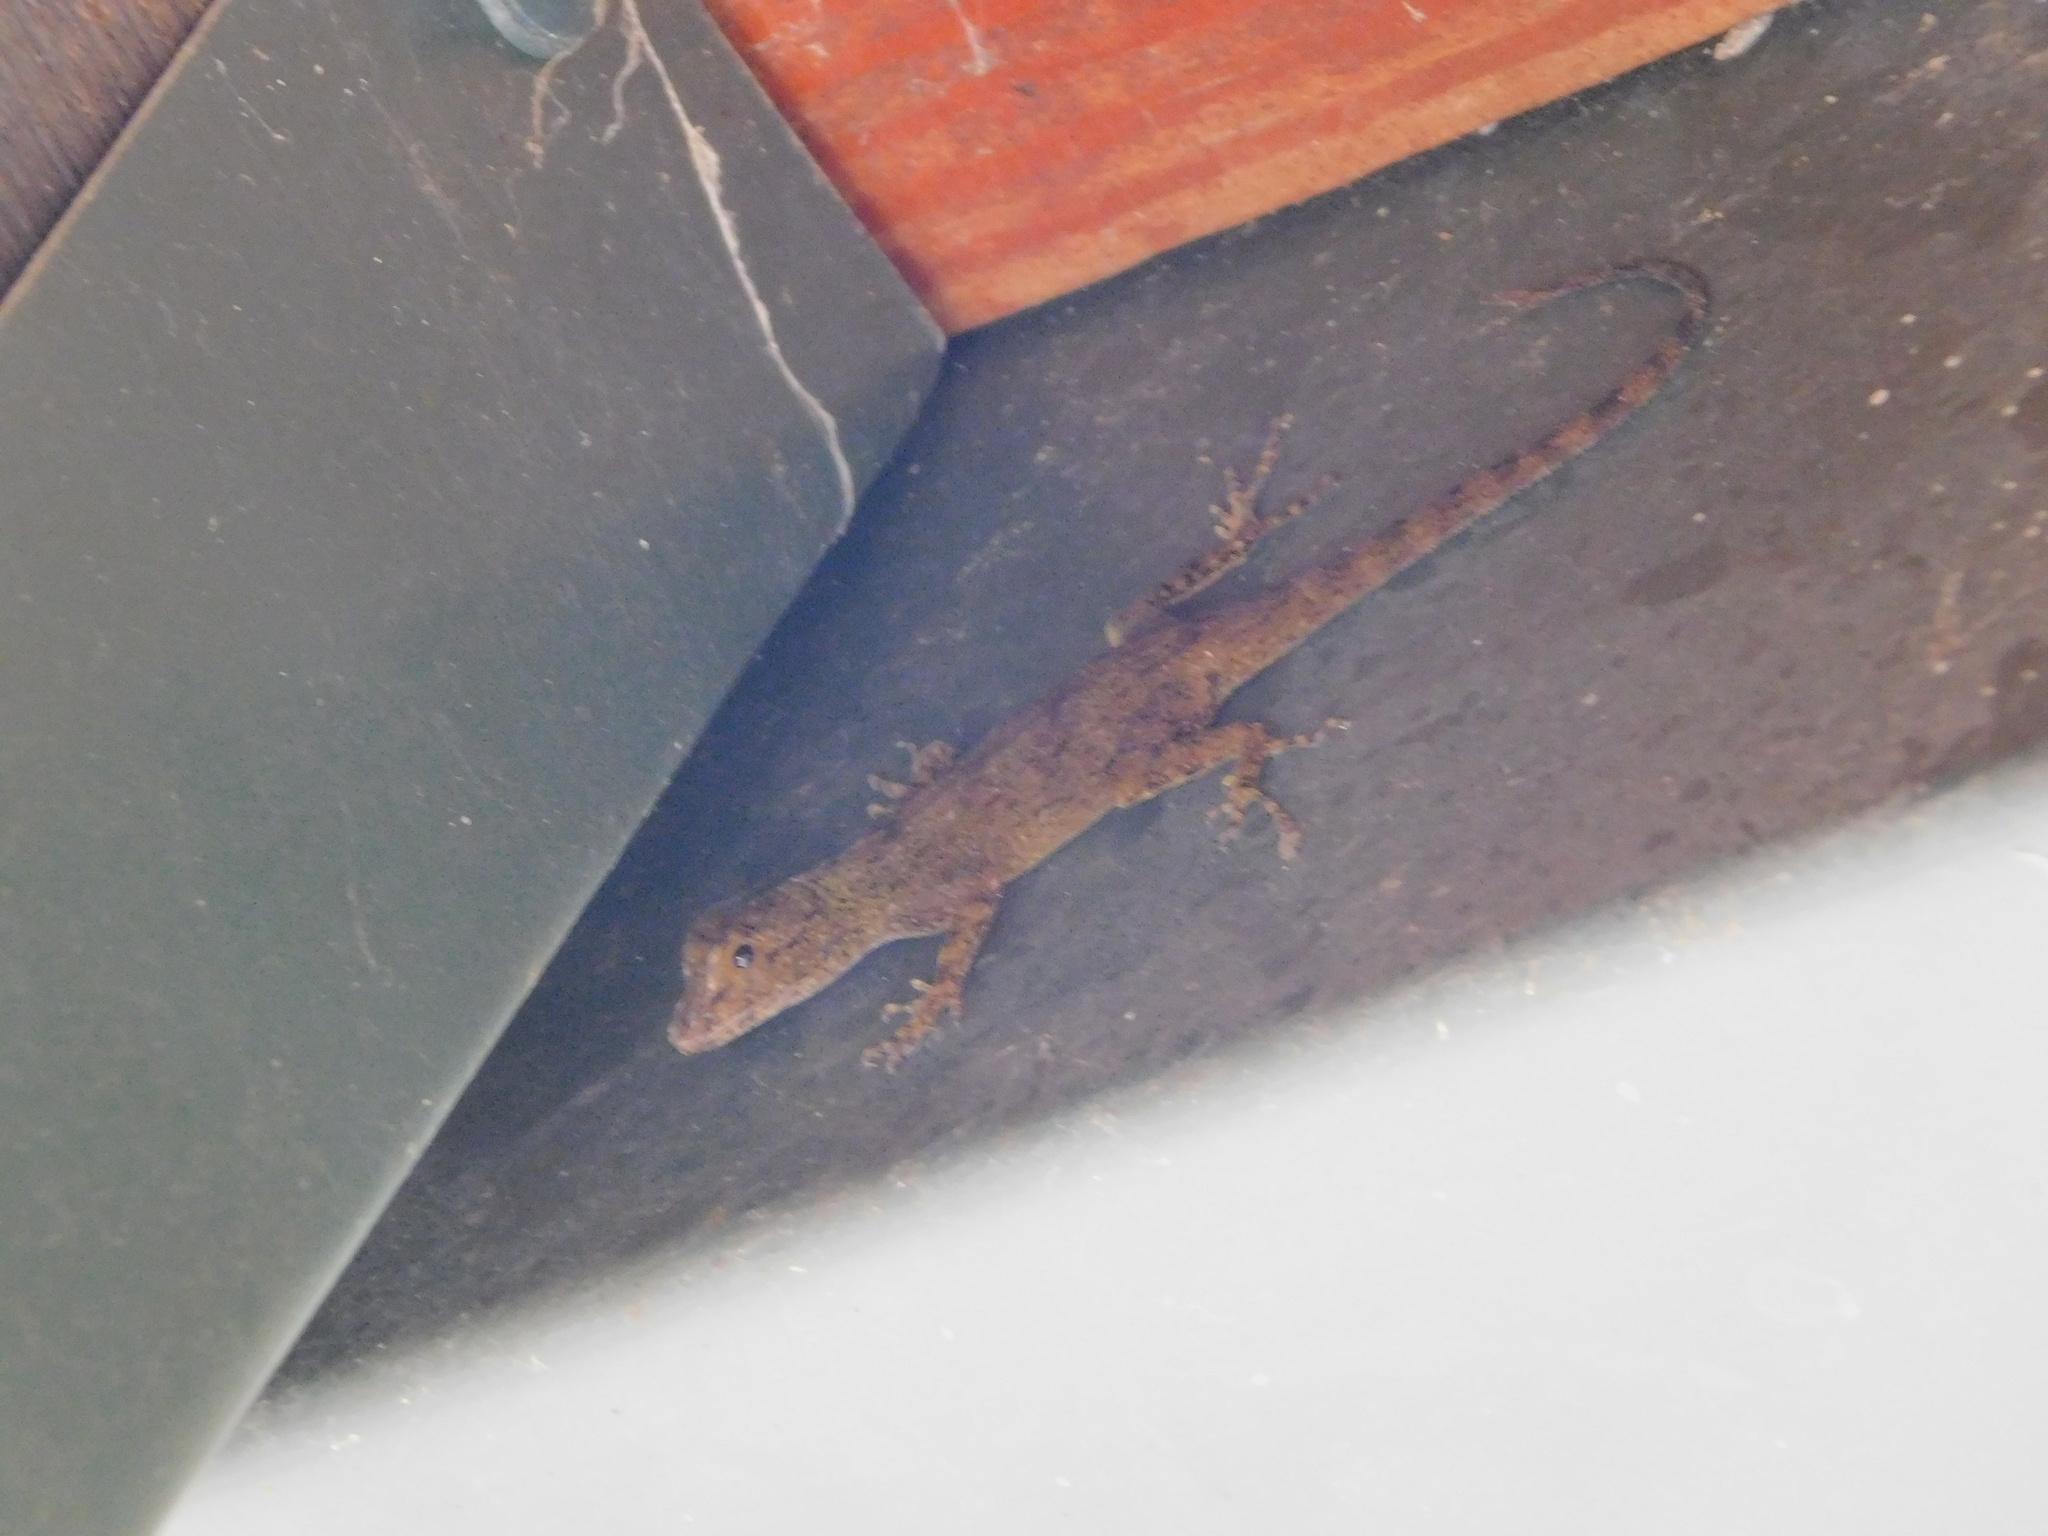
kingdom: Animalia
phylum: Chordata
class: Squamata
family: Dactyloidae
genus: Anolis
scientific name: Anolis distichus
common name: Bark anole
